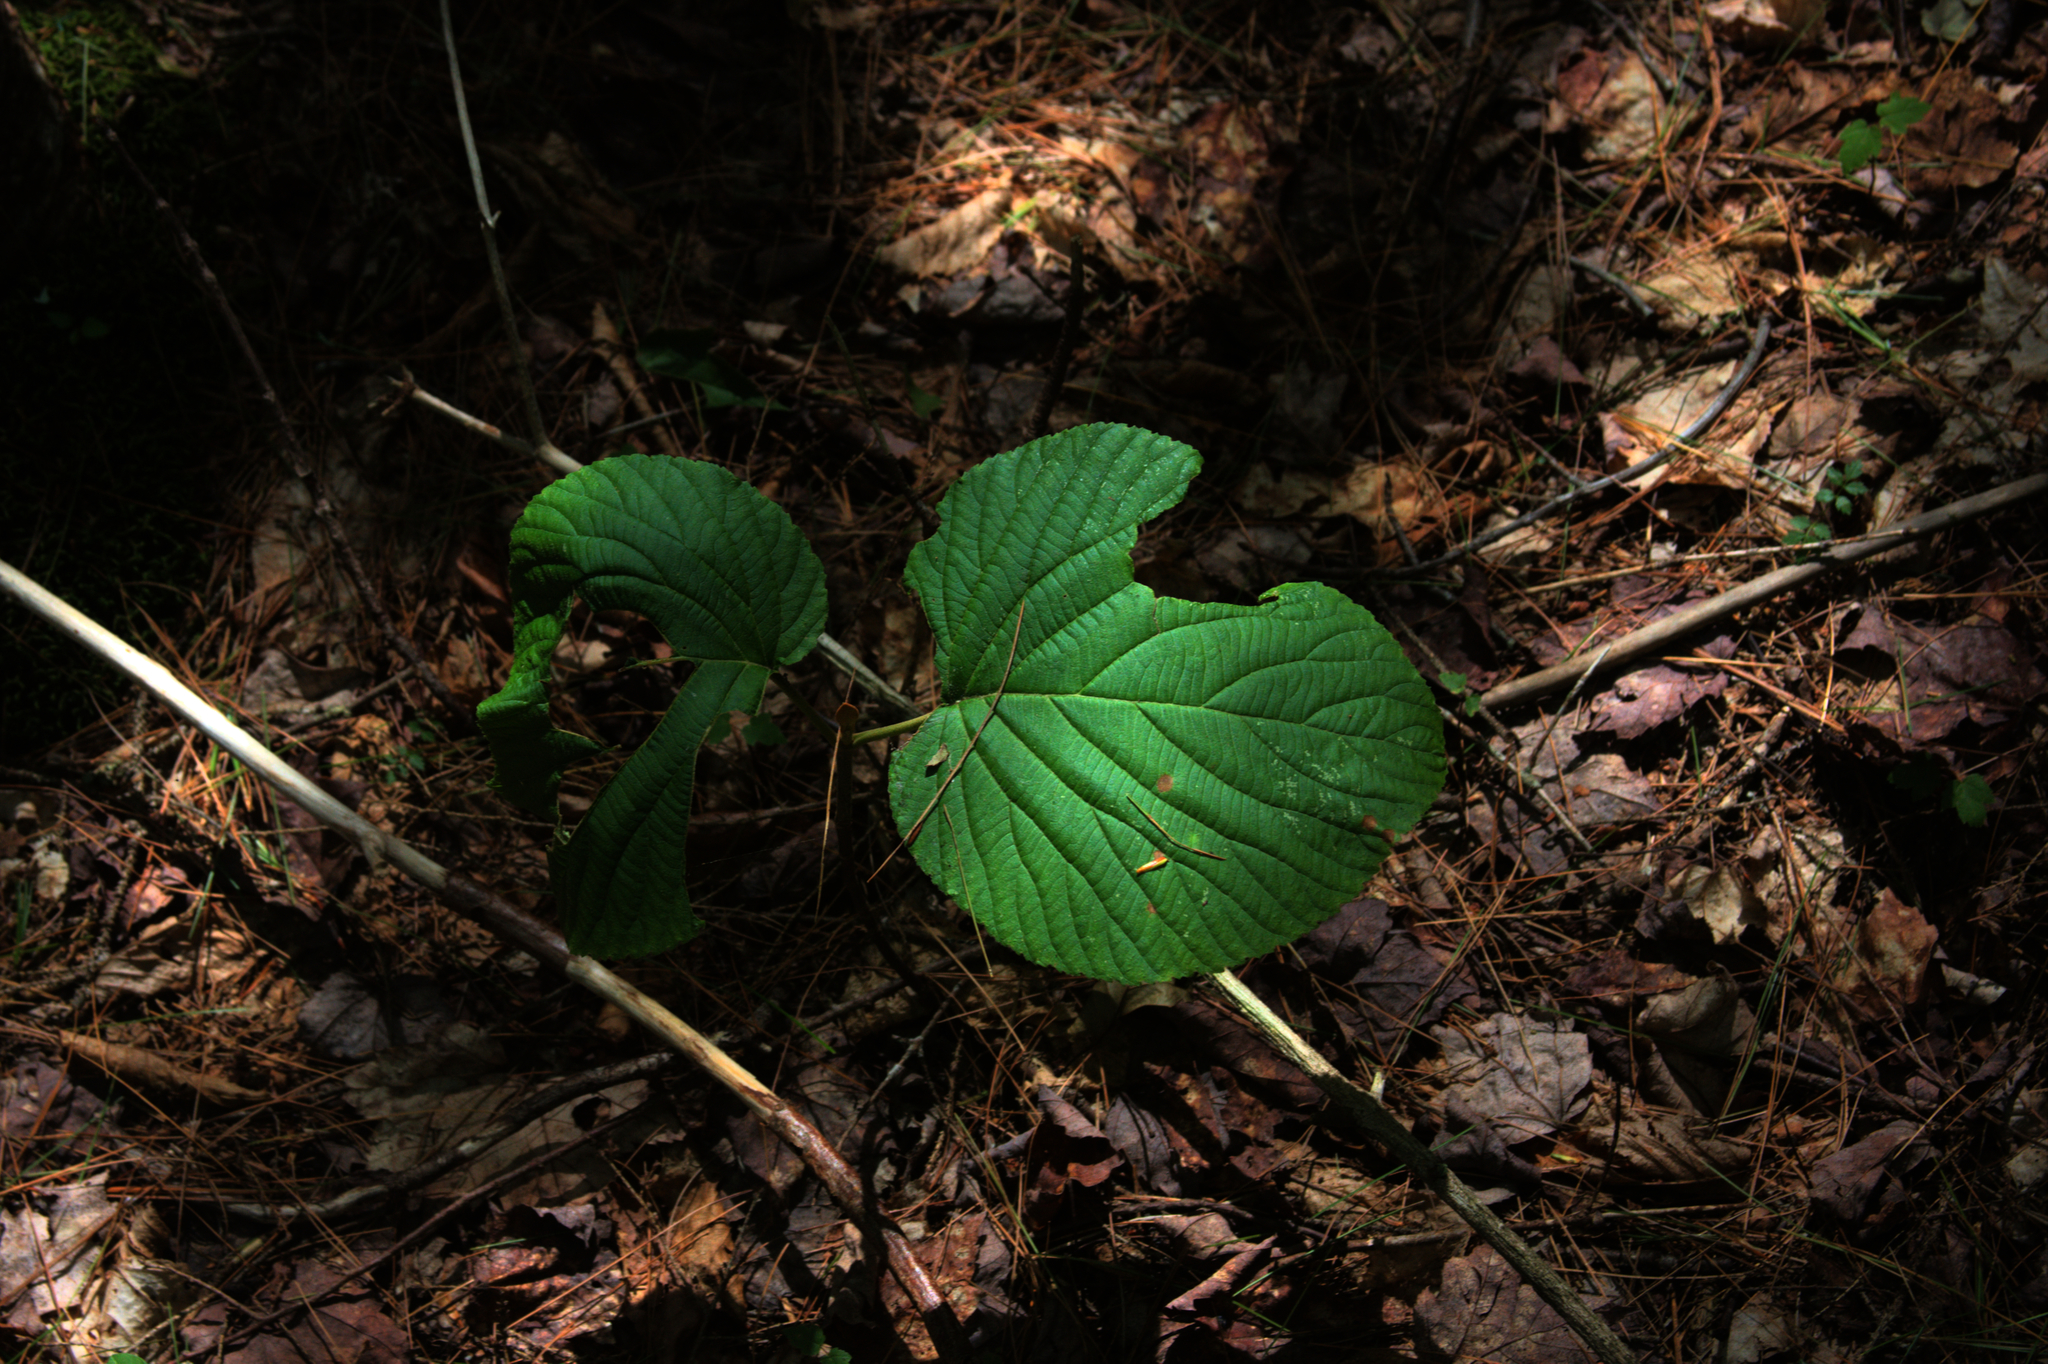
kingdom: Plantae
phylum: Tracheophyta
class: Magnoliopsida
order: Dipsacales
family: Viburnaceae
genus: Viburnum
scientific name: Viburnum lantanoides
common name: Hobblebush
